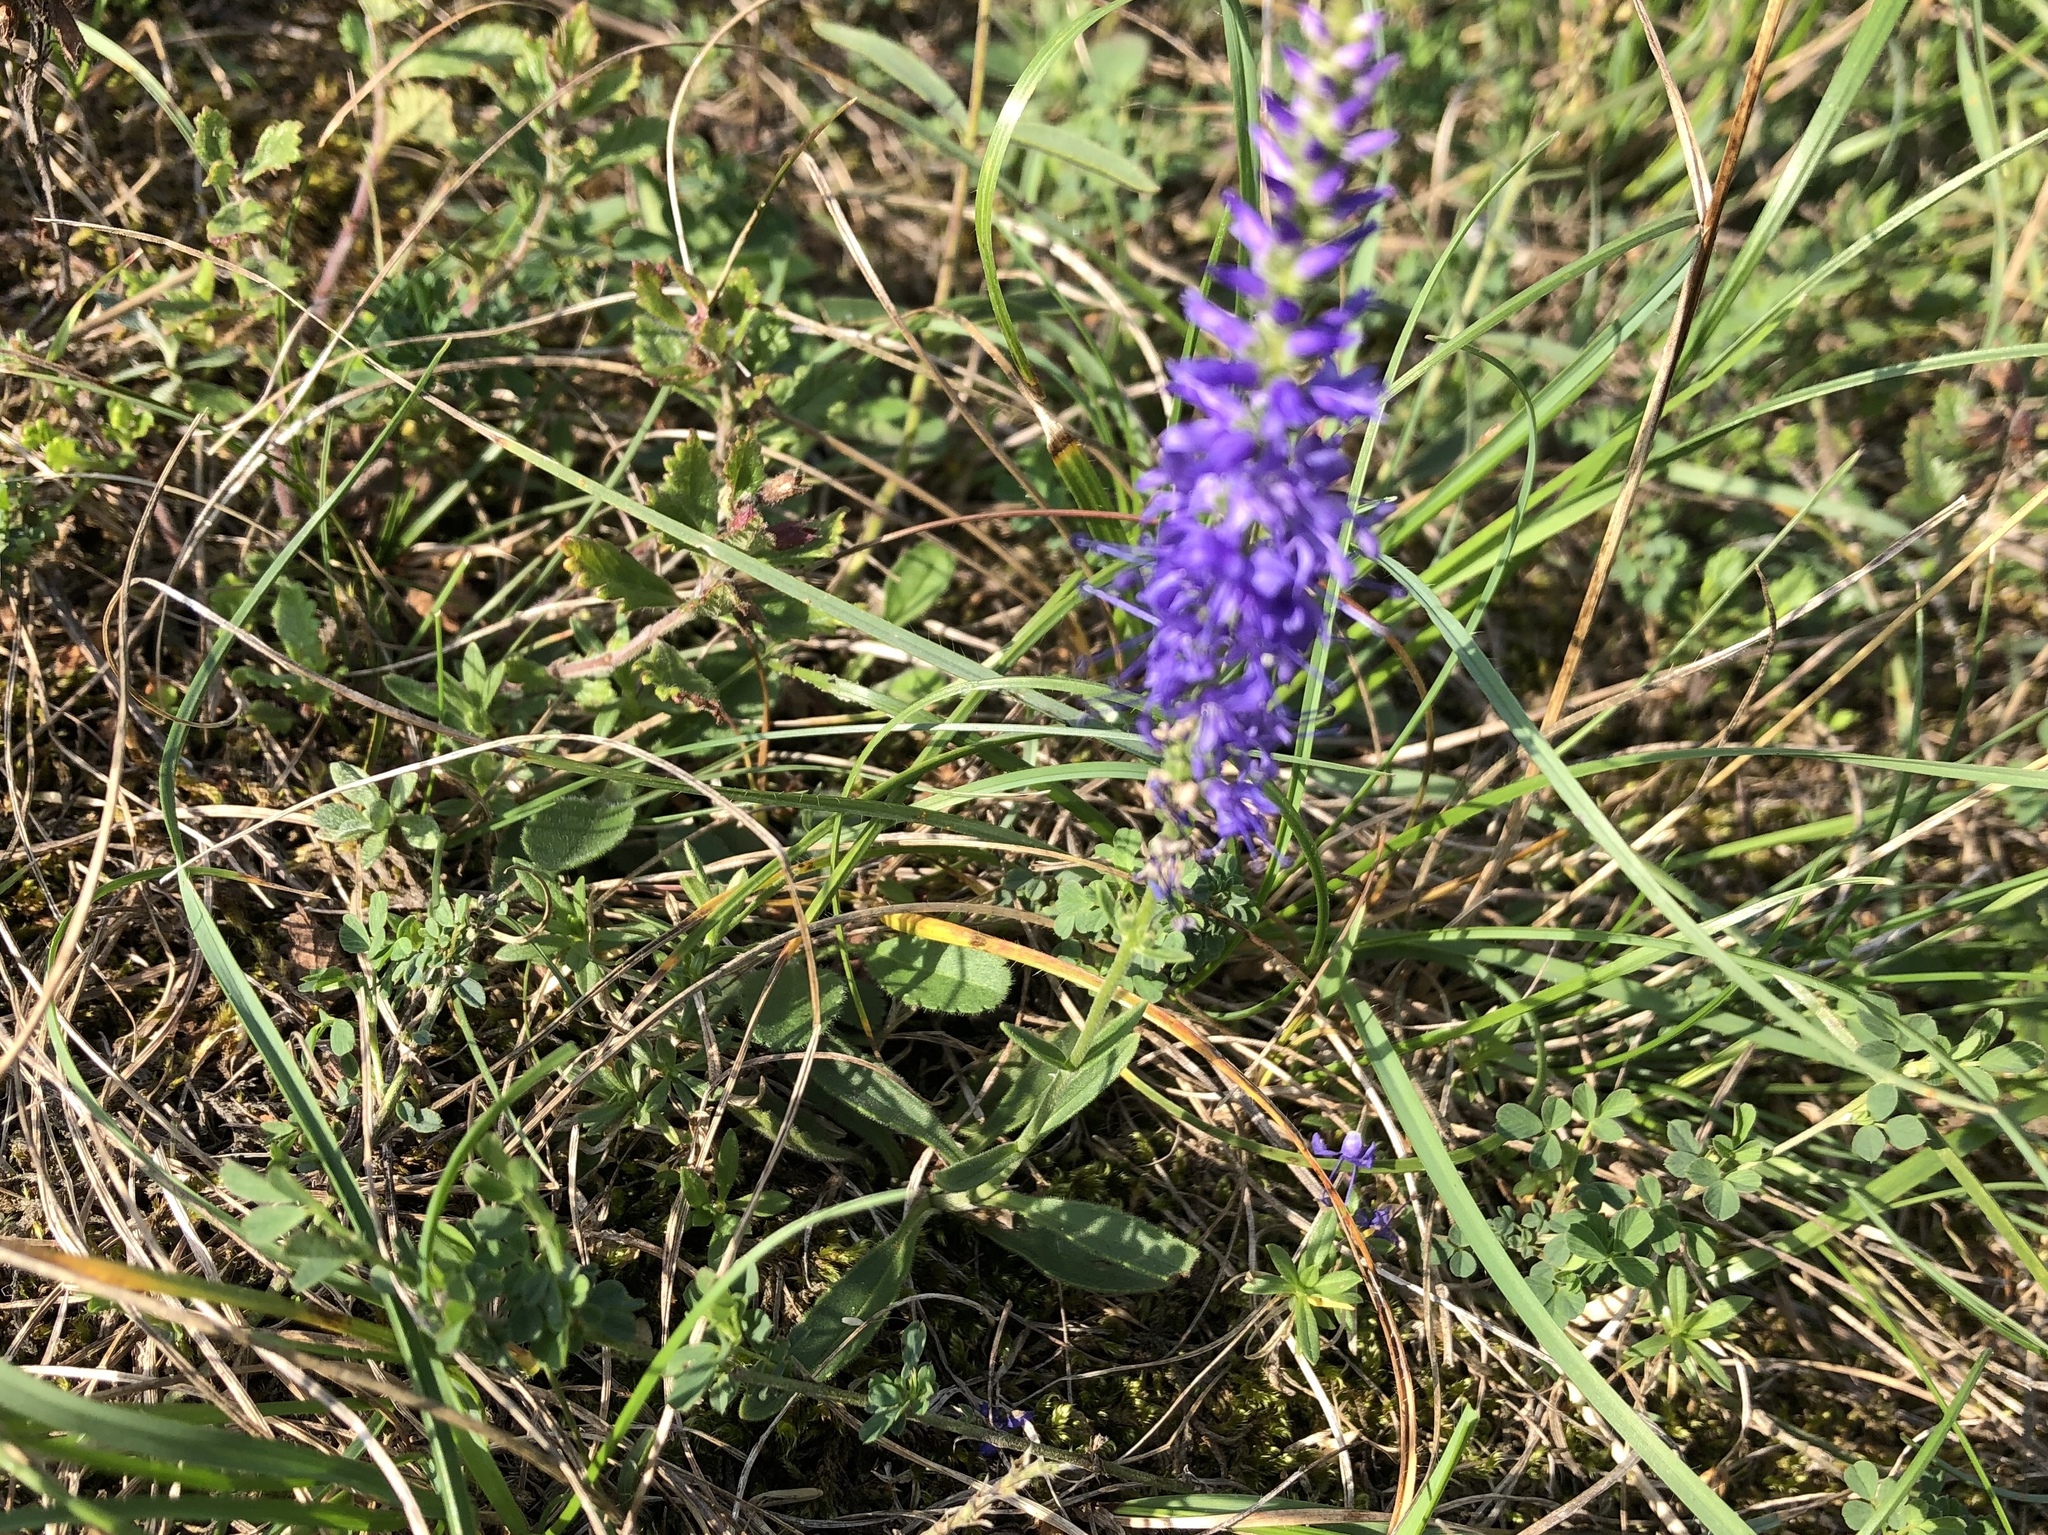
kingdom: Plantae
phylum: Tracheophyta
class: Magnoliopsida
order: Lamiales
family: Plantaginaceae
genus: Veronica
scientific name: Veronica spicata
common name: Spiked speedwell
